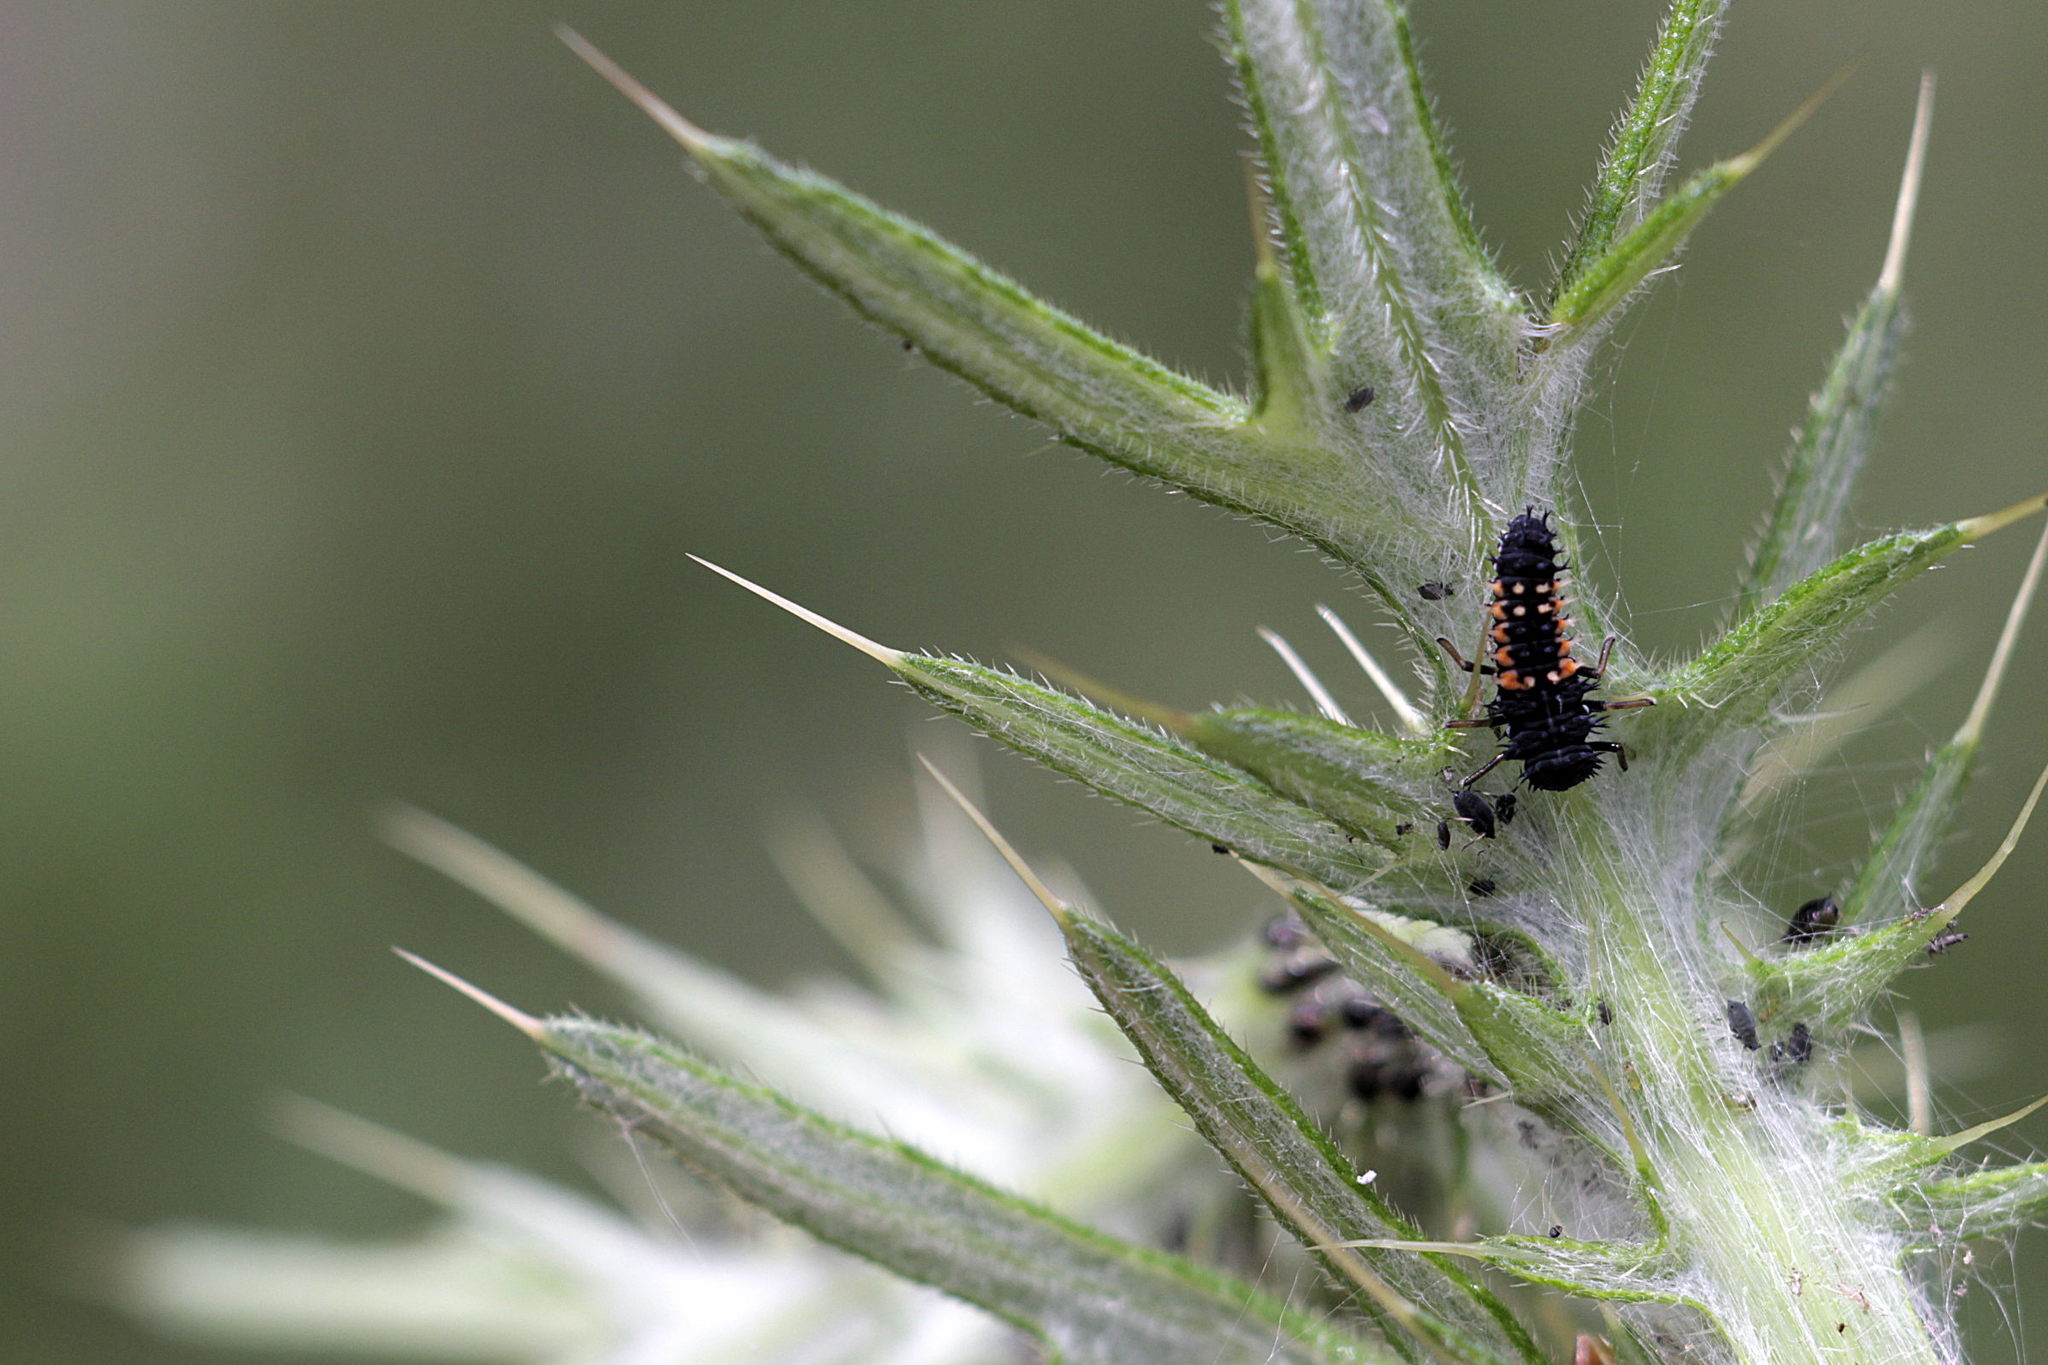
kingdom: Animalia
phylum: Arthropoda
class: Insecta
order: Coleoptera
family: Coccinellidae
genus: Harmonia
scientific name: Harmonia axyridis
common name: Harlequin ladybird
